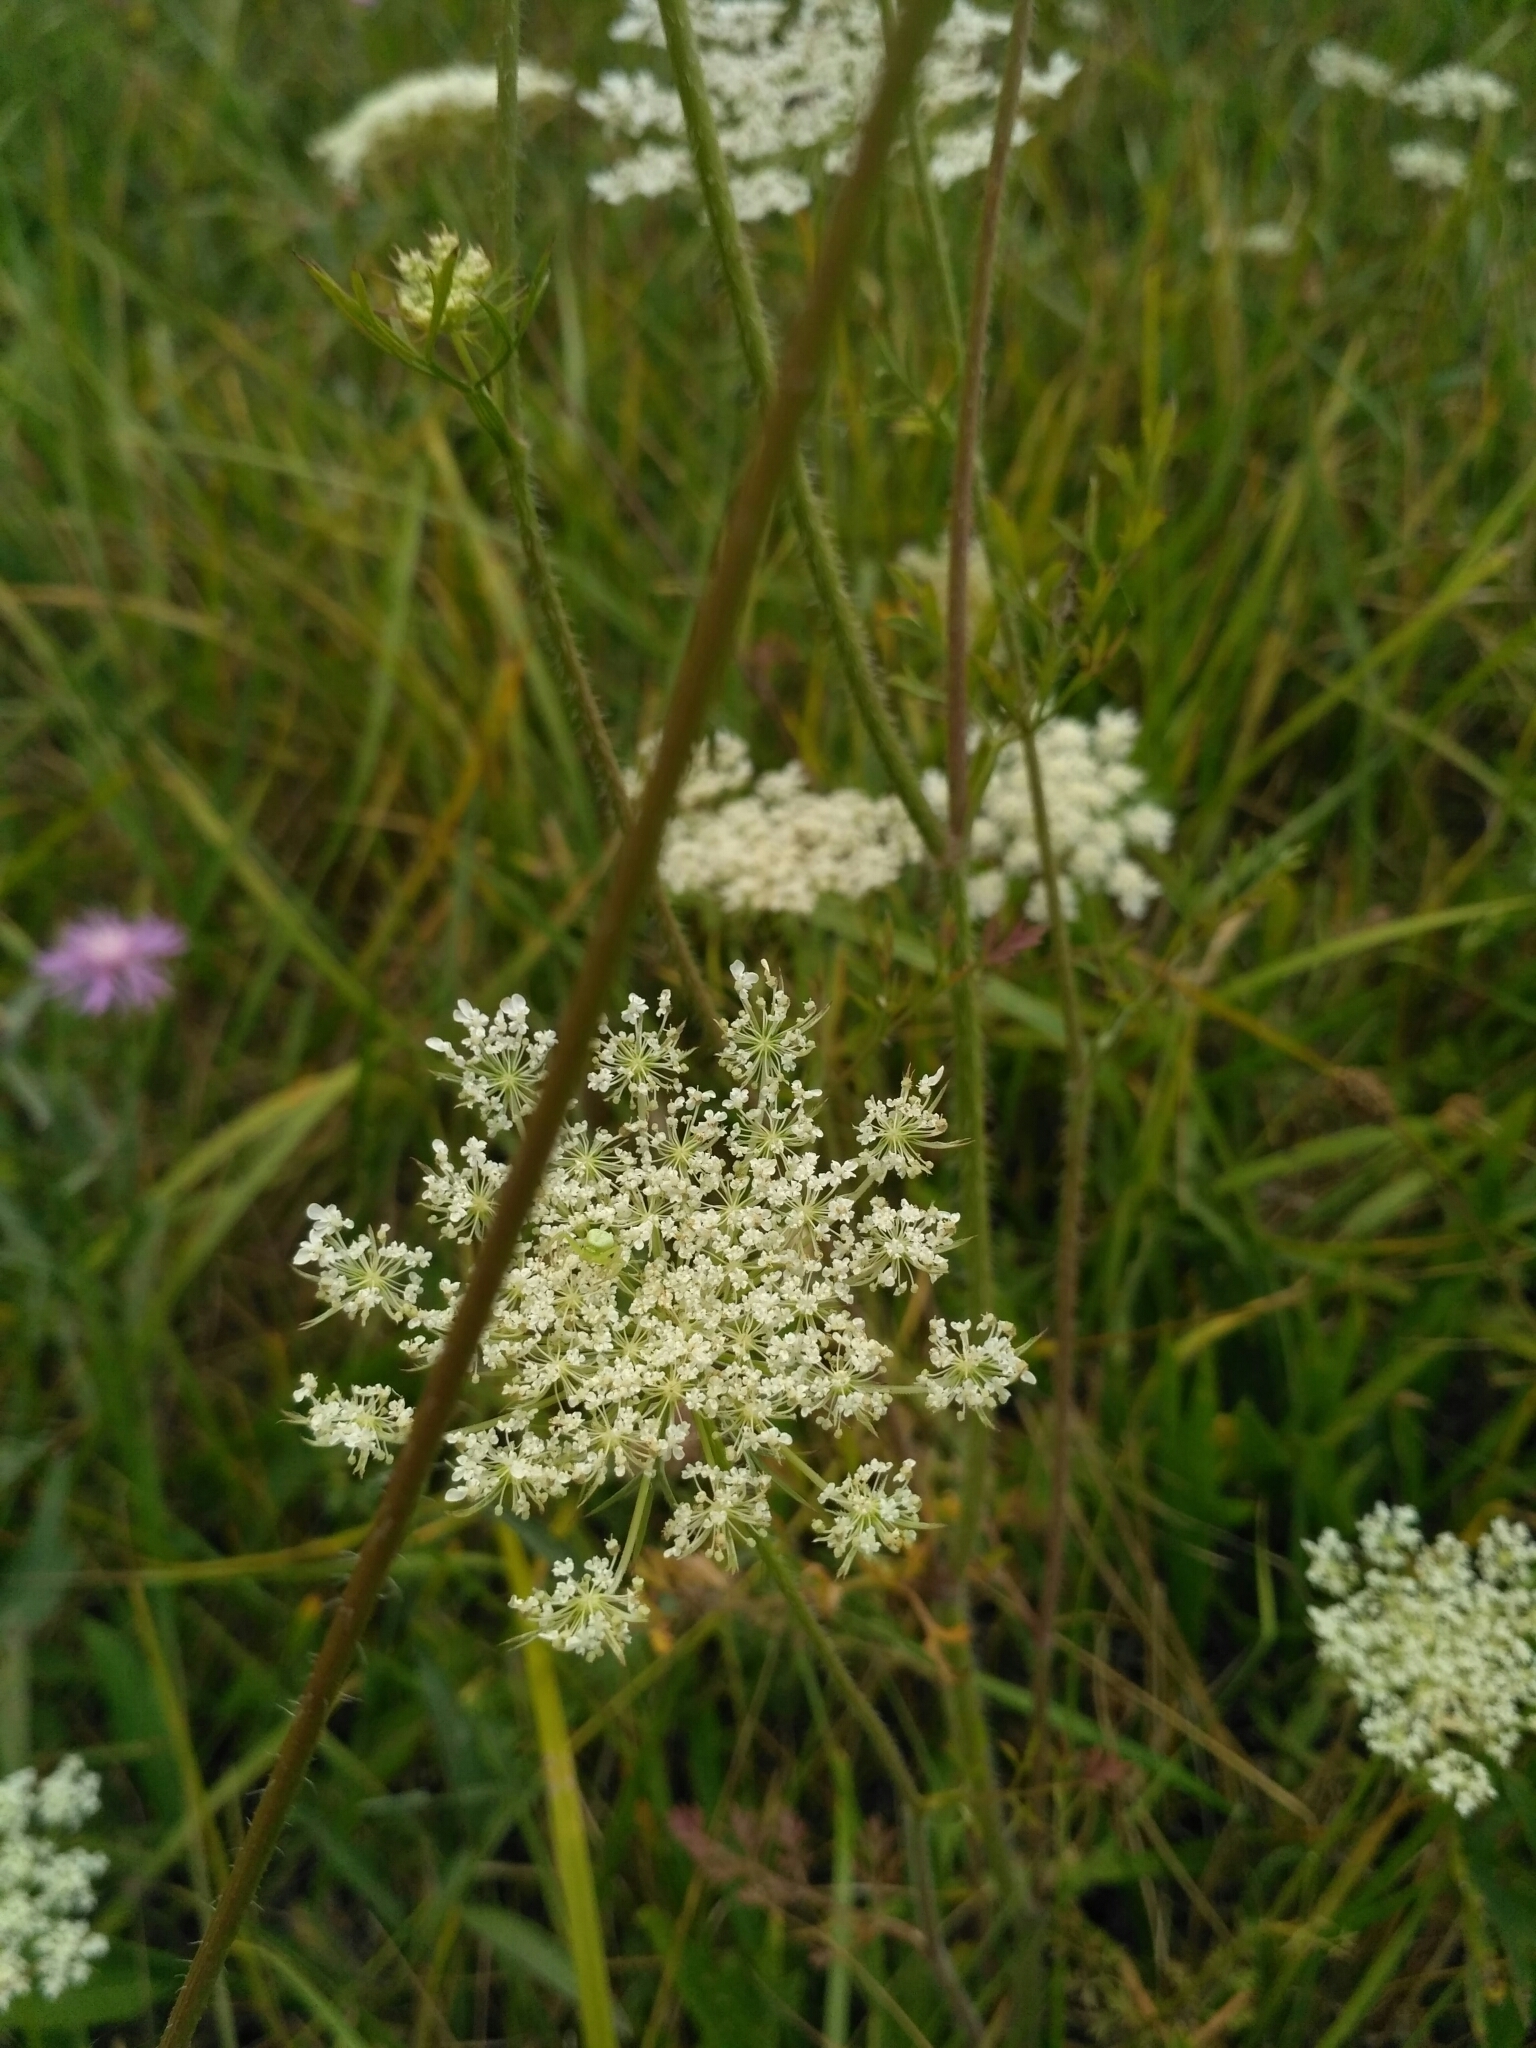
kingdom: Plantae
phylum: Tracheophyta
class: Magnoliopsida
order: Apiales
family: Apiaceae
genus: Daucus
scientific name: Daucus carota
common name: Wild carrot
